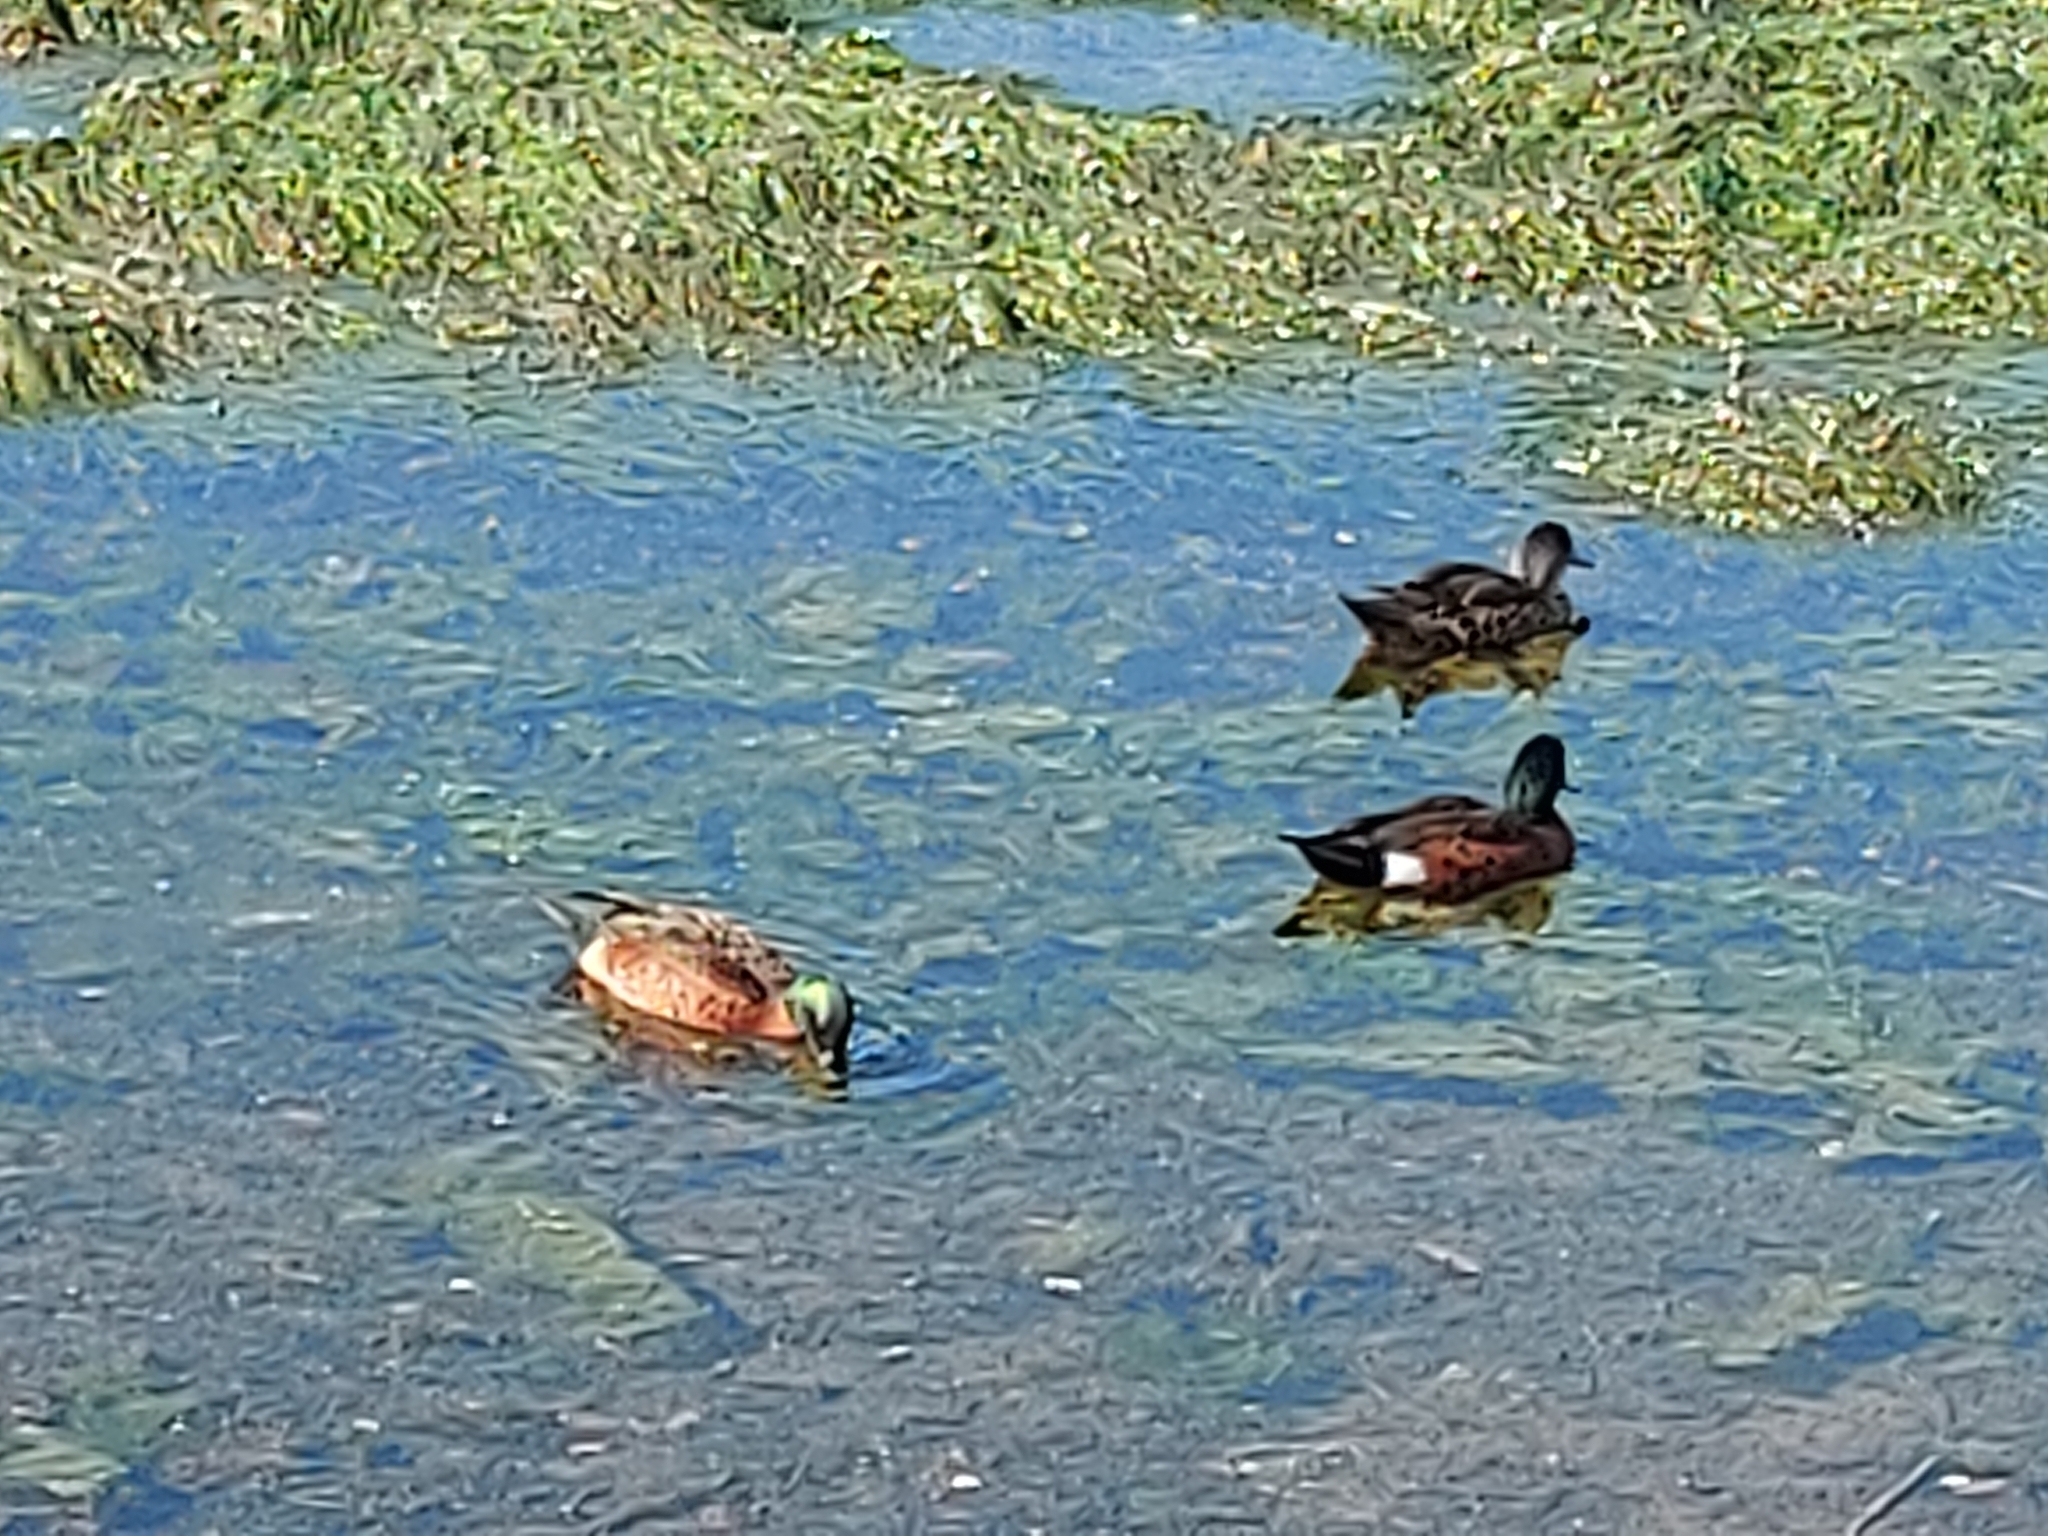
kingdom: Animalia
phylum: Chordata
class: Aves
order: Anseriformes
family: Anatidae
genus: Anas
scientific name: Anas castanea
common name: Chestnut teal
